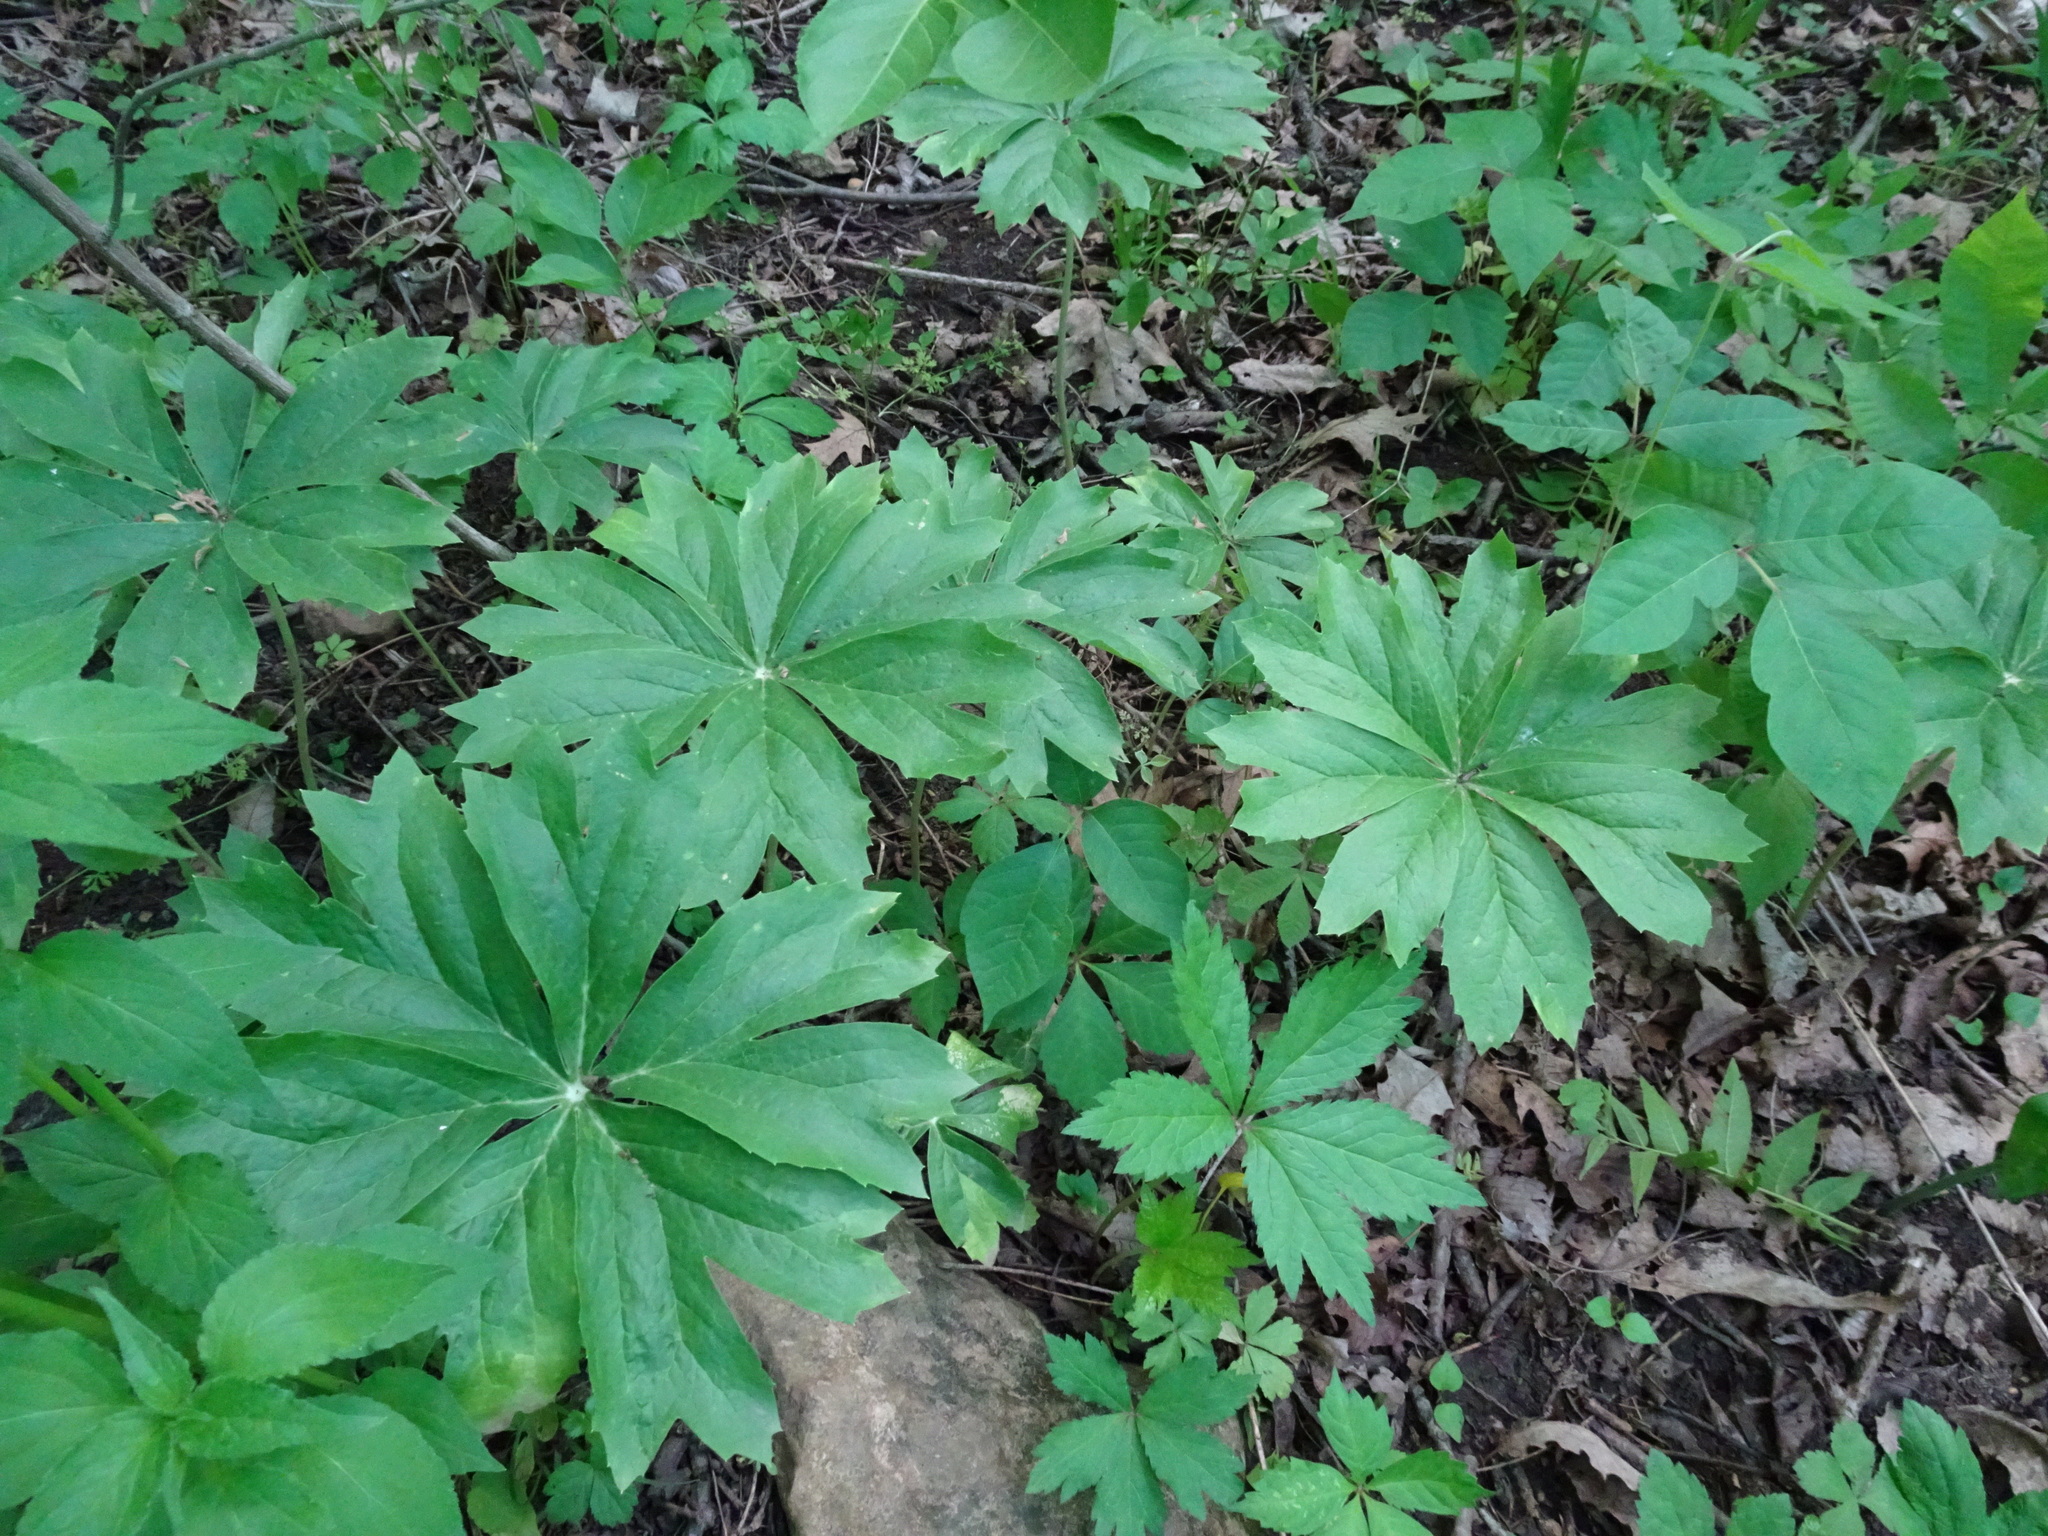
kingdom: Plantae
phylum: Tracheophyta
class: Magnoliopsida
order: Ranunculales
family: Berberidaceae
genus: Podophyllum
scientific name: Podophyllum peltatum
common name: Wild mandrake
